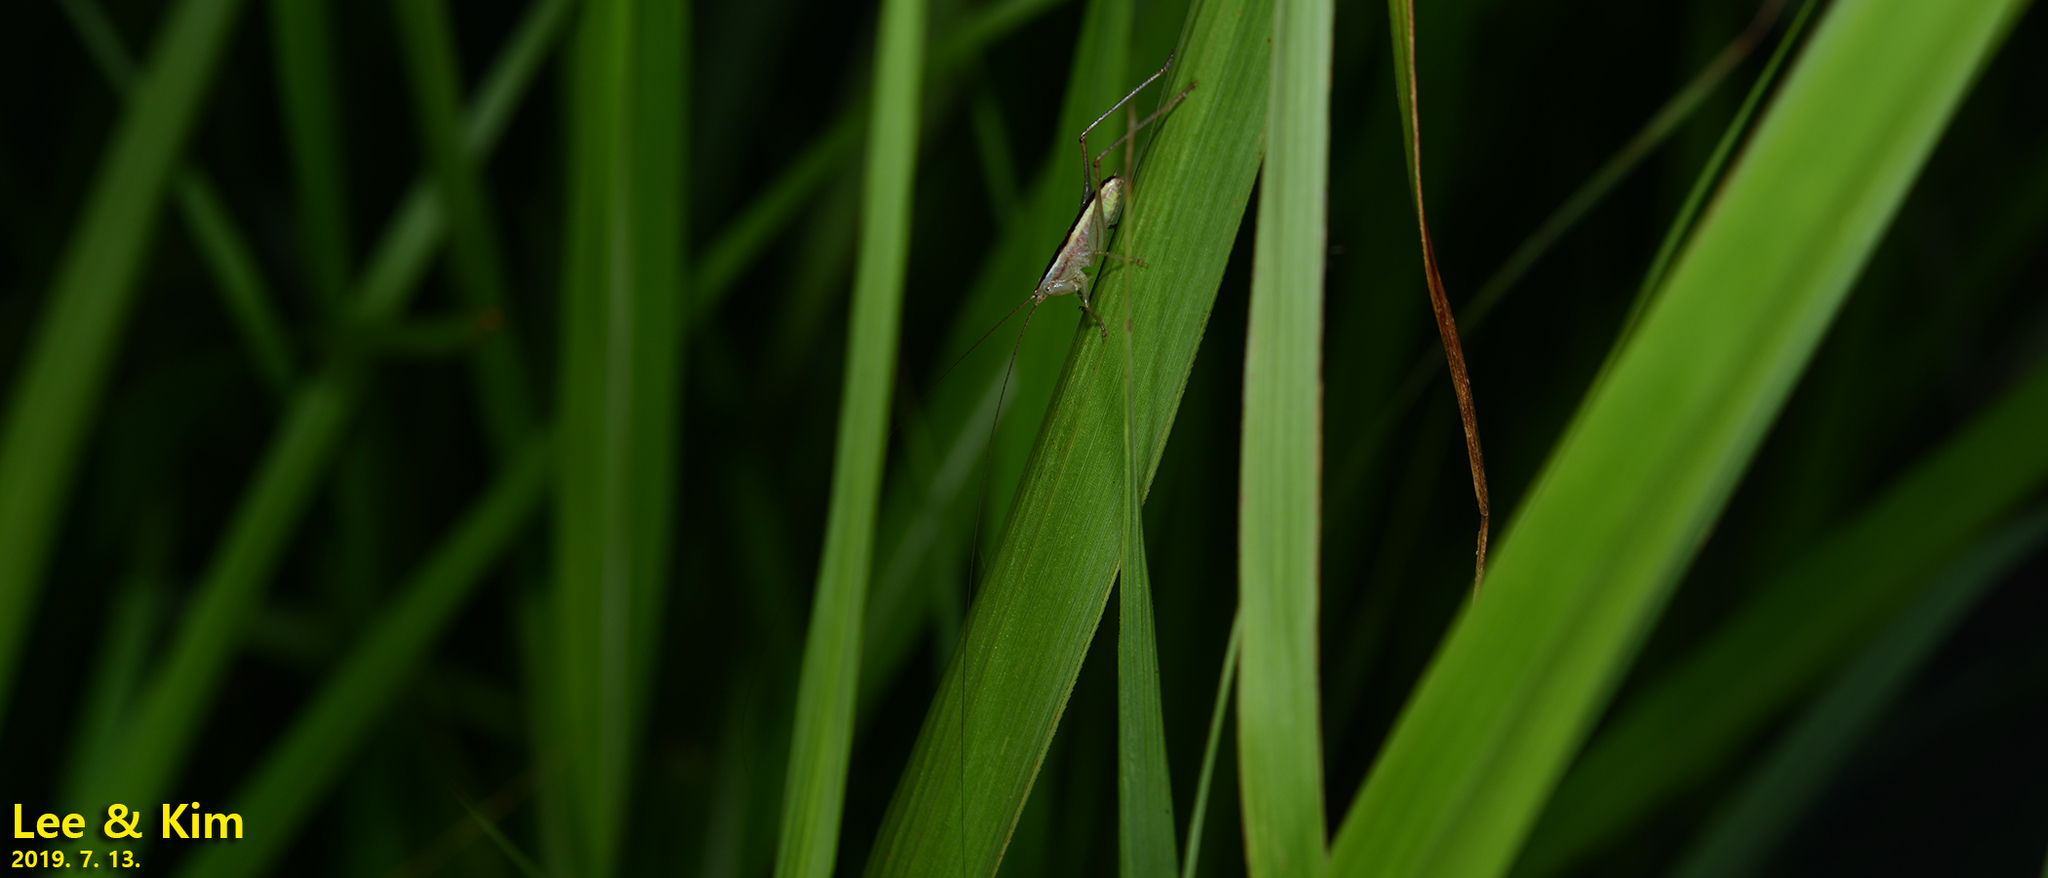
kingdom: Animalia
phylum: Arthropoda
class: Insecta
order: Orthoptera
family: Tettigoniidae
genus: Conocephalus
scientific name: Conocephalus exemptus
